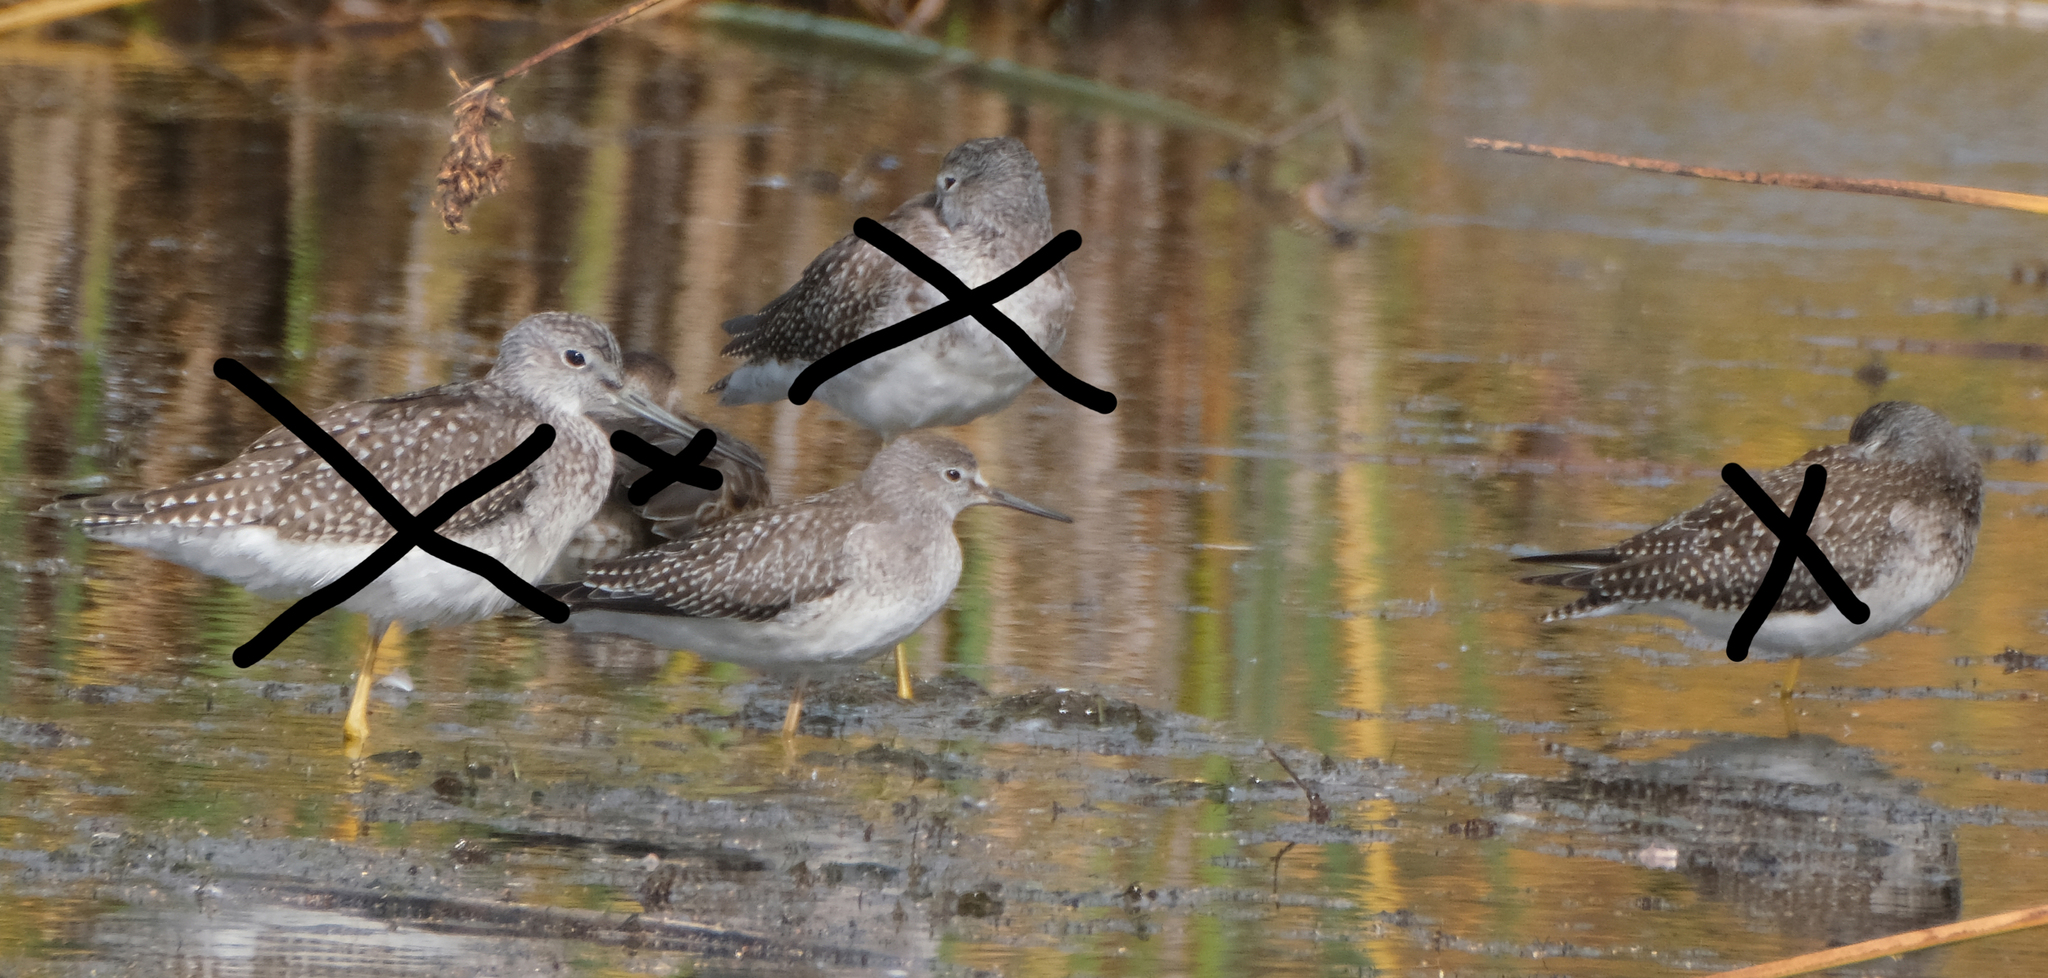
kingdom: Animalia
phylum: Chordata
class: Aves
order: Charadriiformes
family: Scolopacidae
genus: Tringa
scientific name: Tringa flavipes
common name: Lesser yellowlegs
